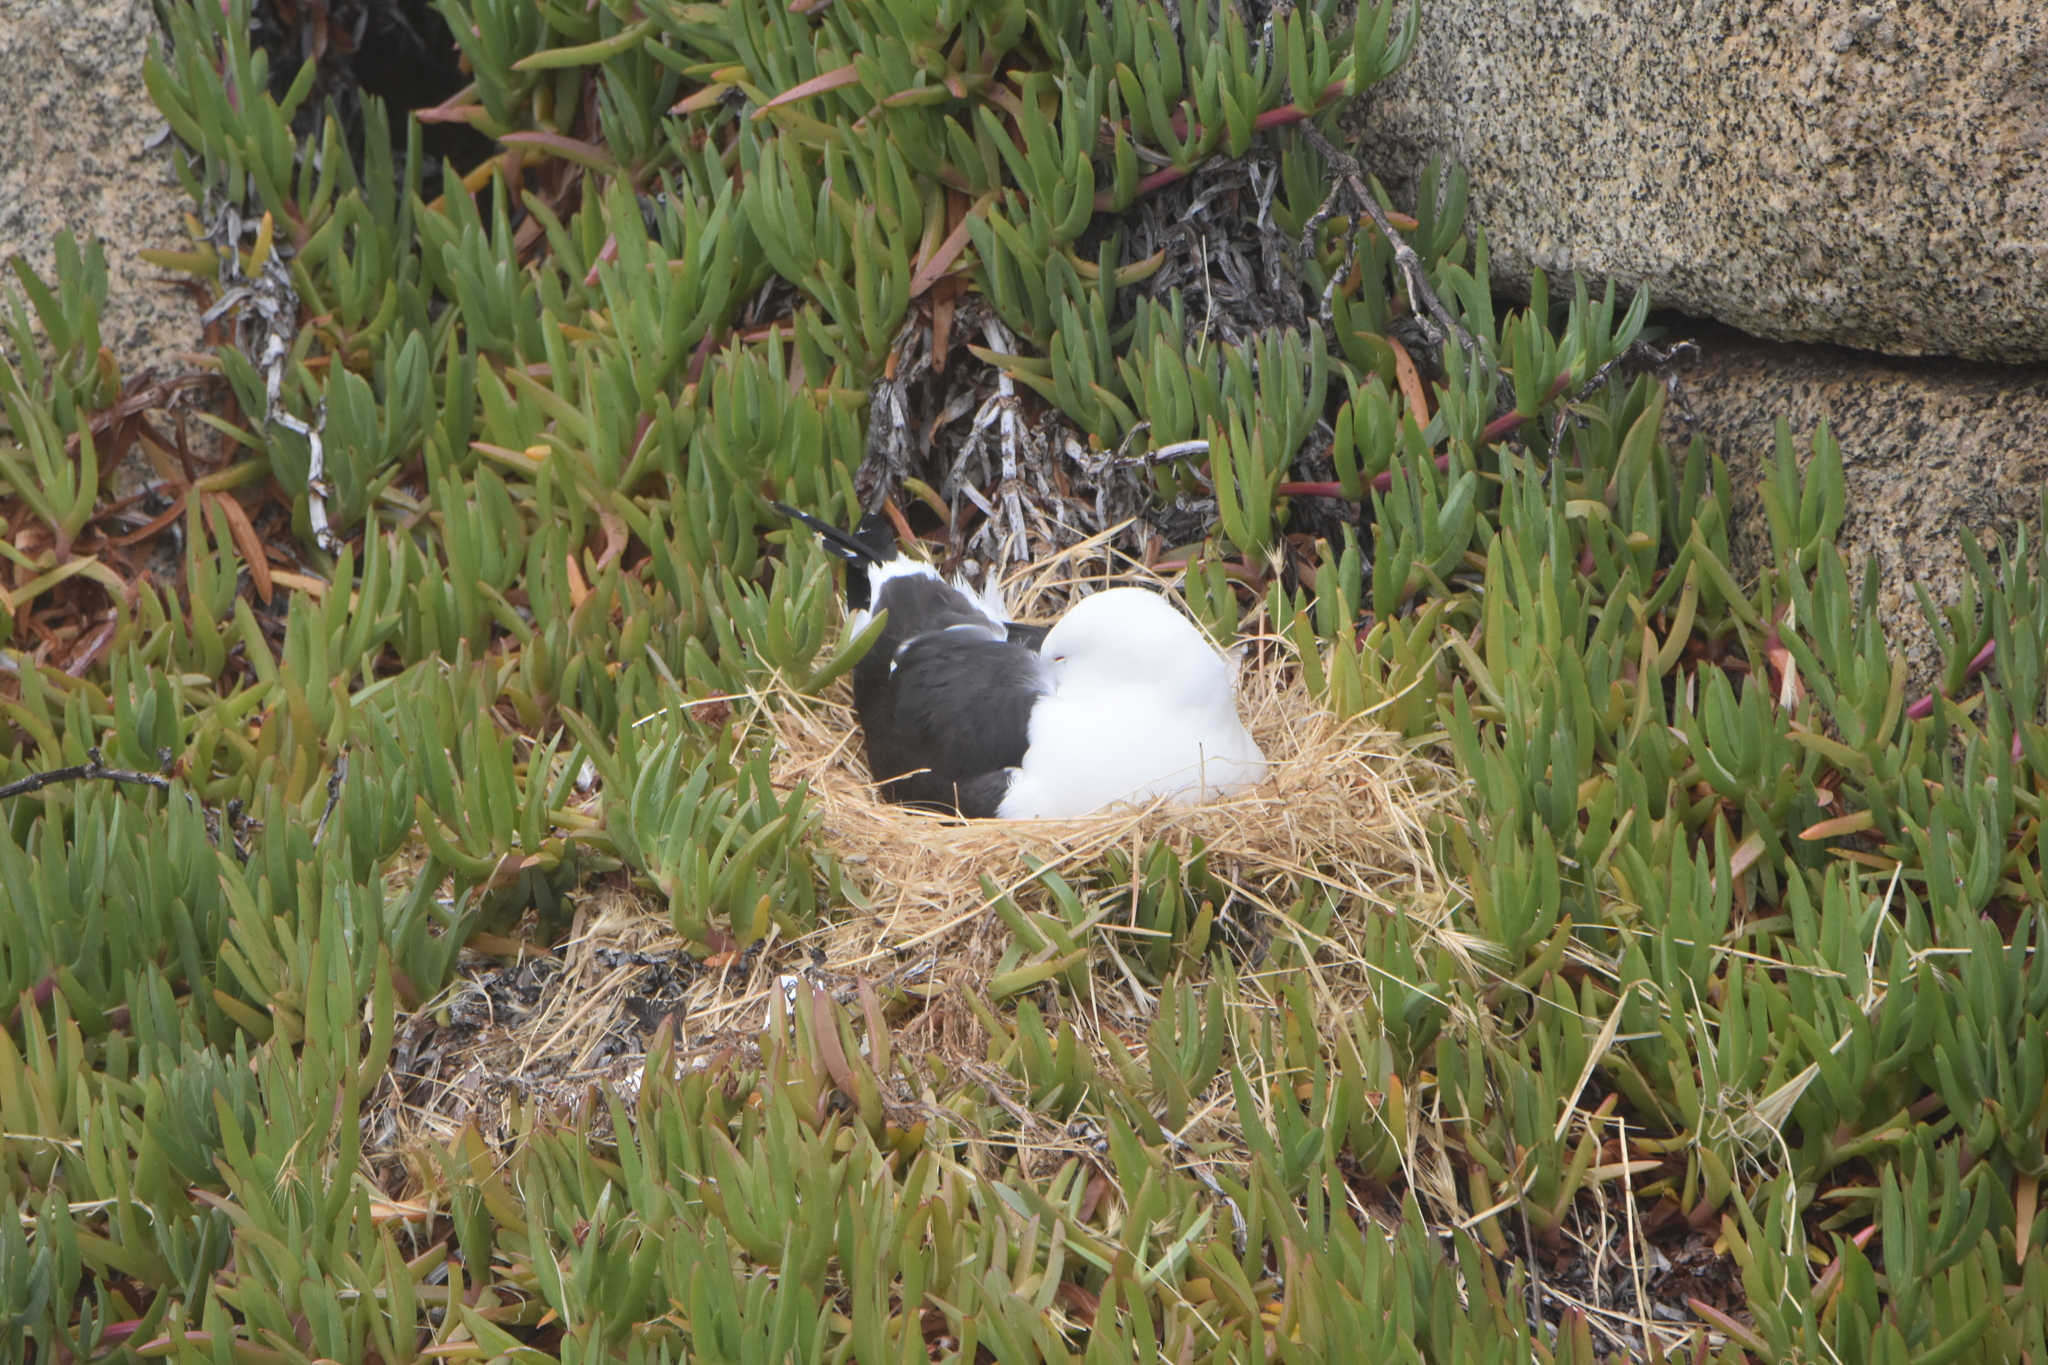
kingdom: Animalia
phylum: Chordata
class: Aves
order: Charadriiformes
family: Laridae
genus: Larus
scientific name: Larus dominicanus
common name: Kelp gull
